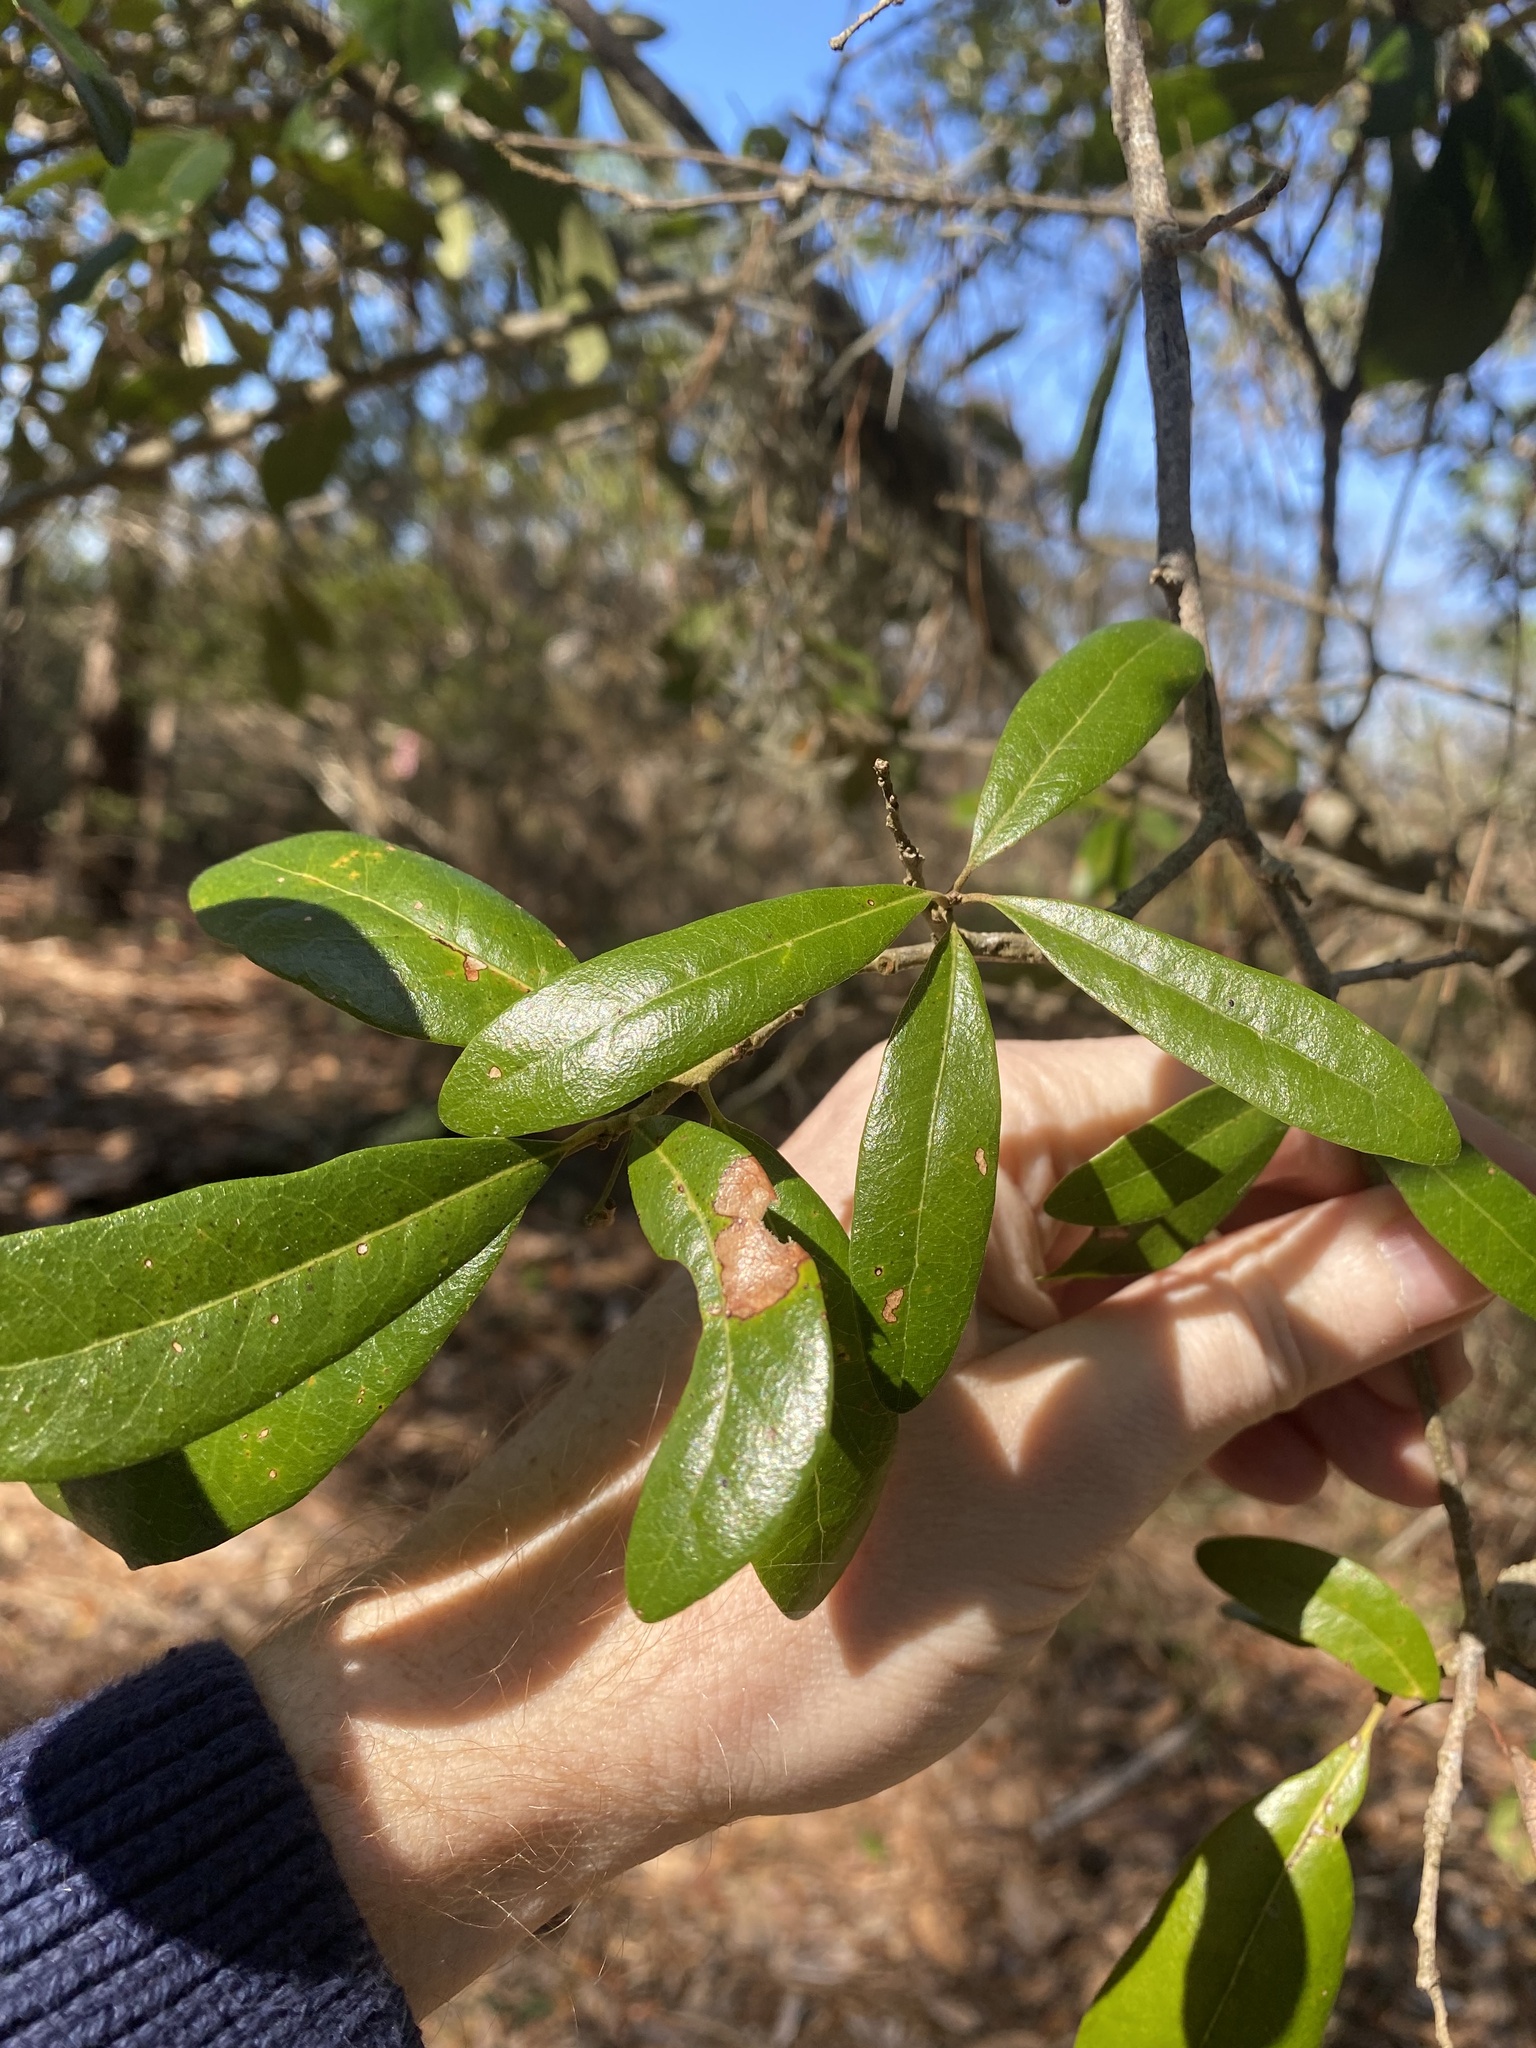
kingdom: Animalia
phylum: Arthropoda
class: Insecta
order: Hymenoptera
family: Cynipidae
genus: Callirhytis
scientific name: Callirhytis
